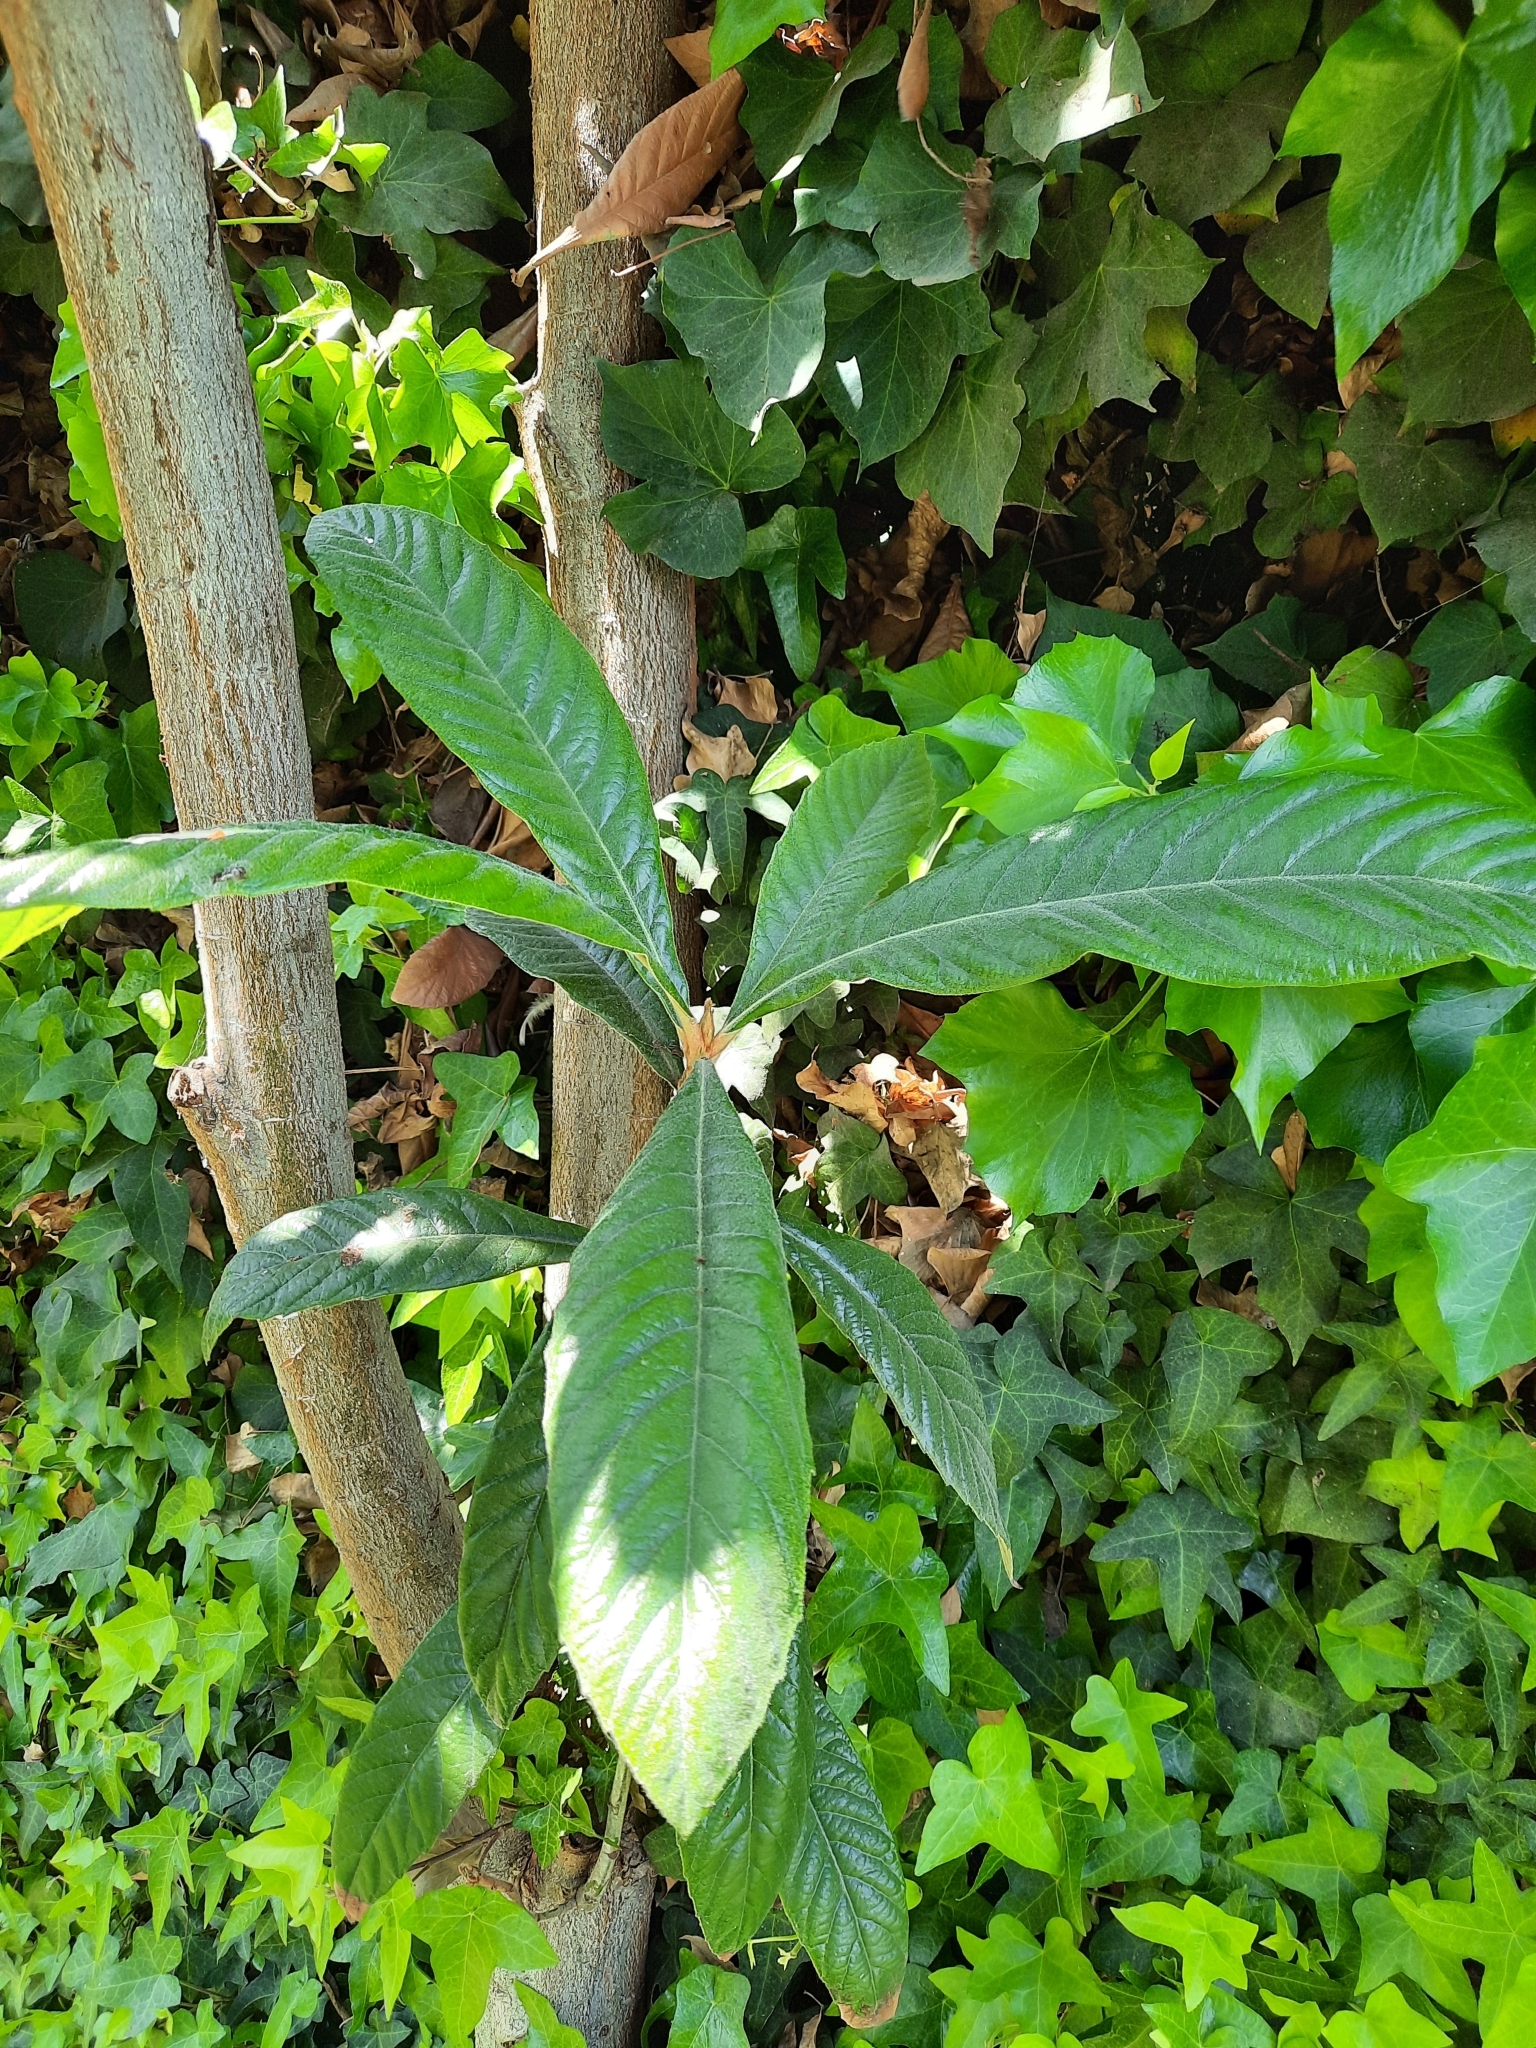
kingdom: Plantae
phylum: Tracheophyta
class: Magnoliopsida
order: Rosales
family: Rosaceae
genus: Rhaphiolepis
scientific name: Rhaphiolepis bibas
